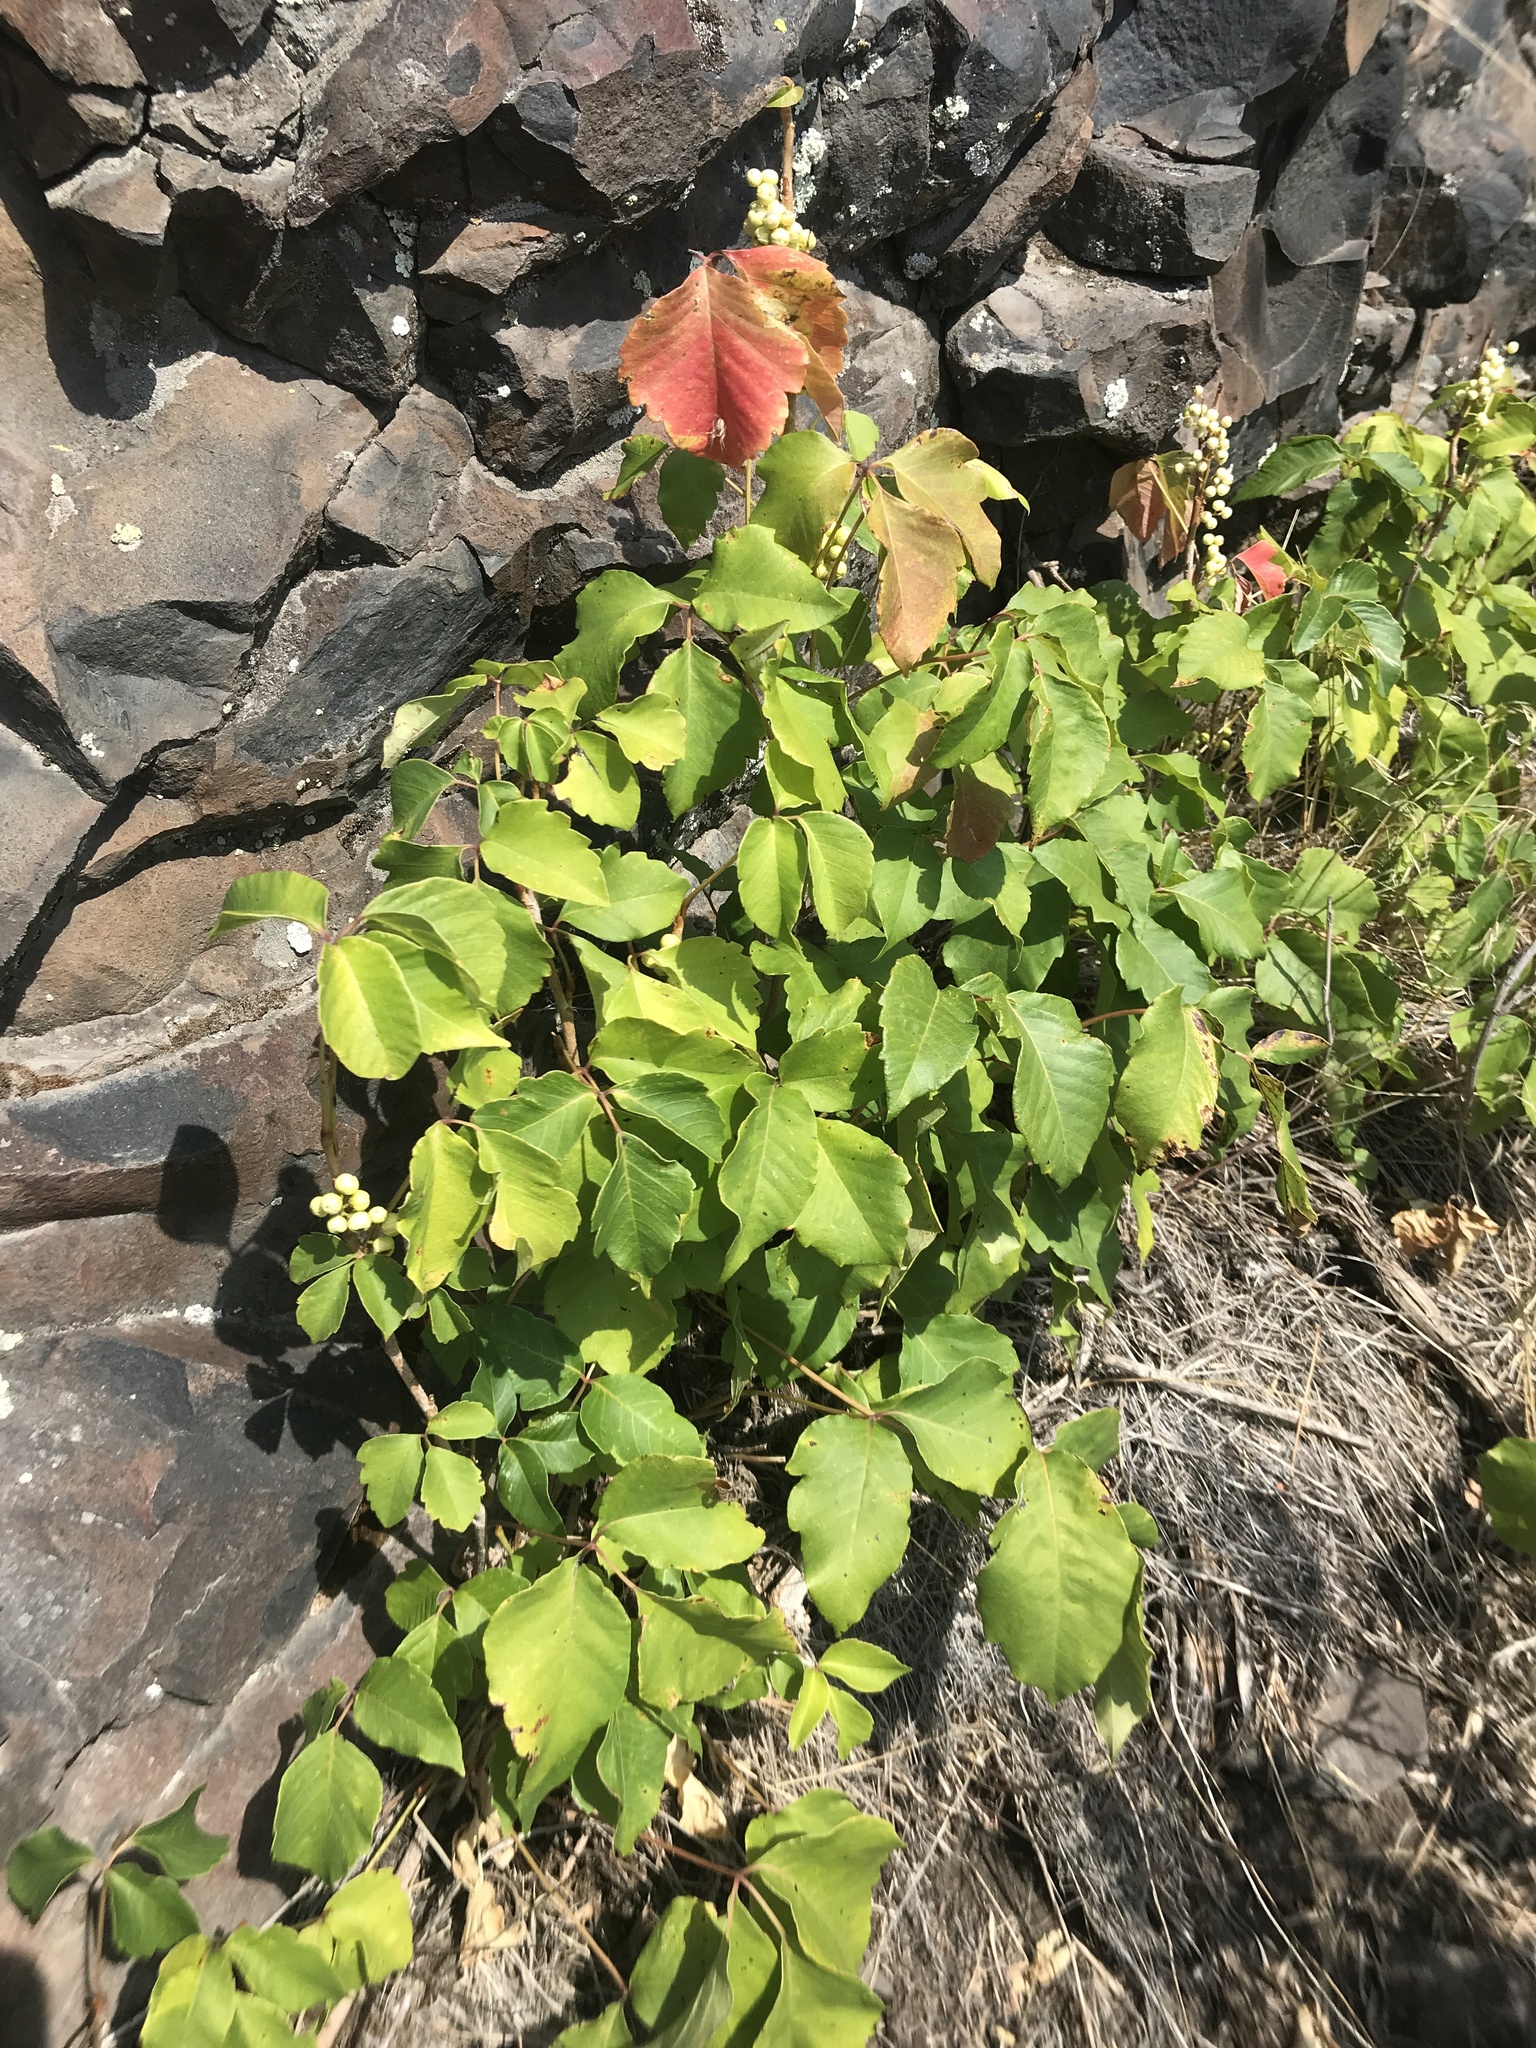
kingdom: Plantae
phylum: Tracheophyta
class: Magnoliopsida
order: Sapindales
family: Anacardiaceae
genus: Toxicodendron
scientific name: Toxicodendron rydbergii
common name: Rydberg's poison-ivy
